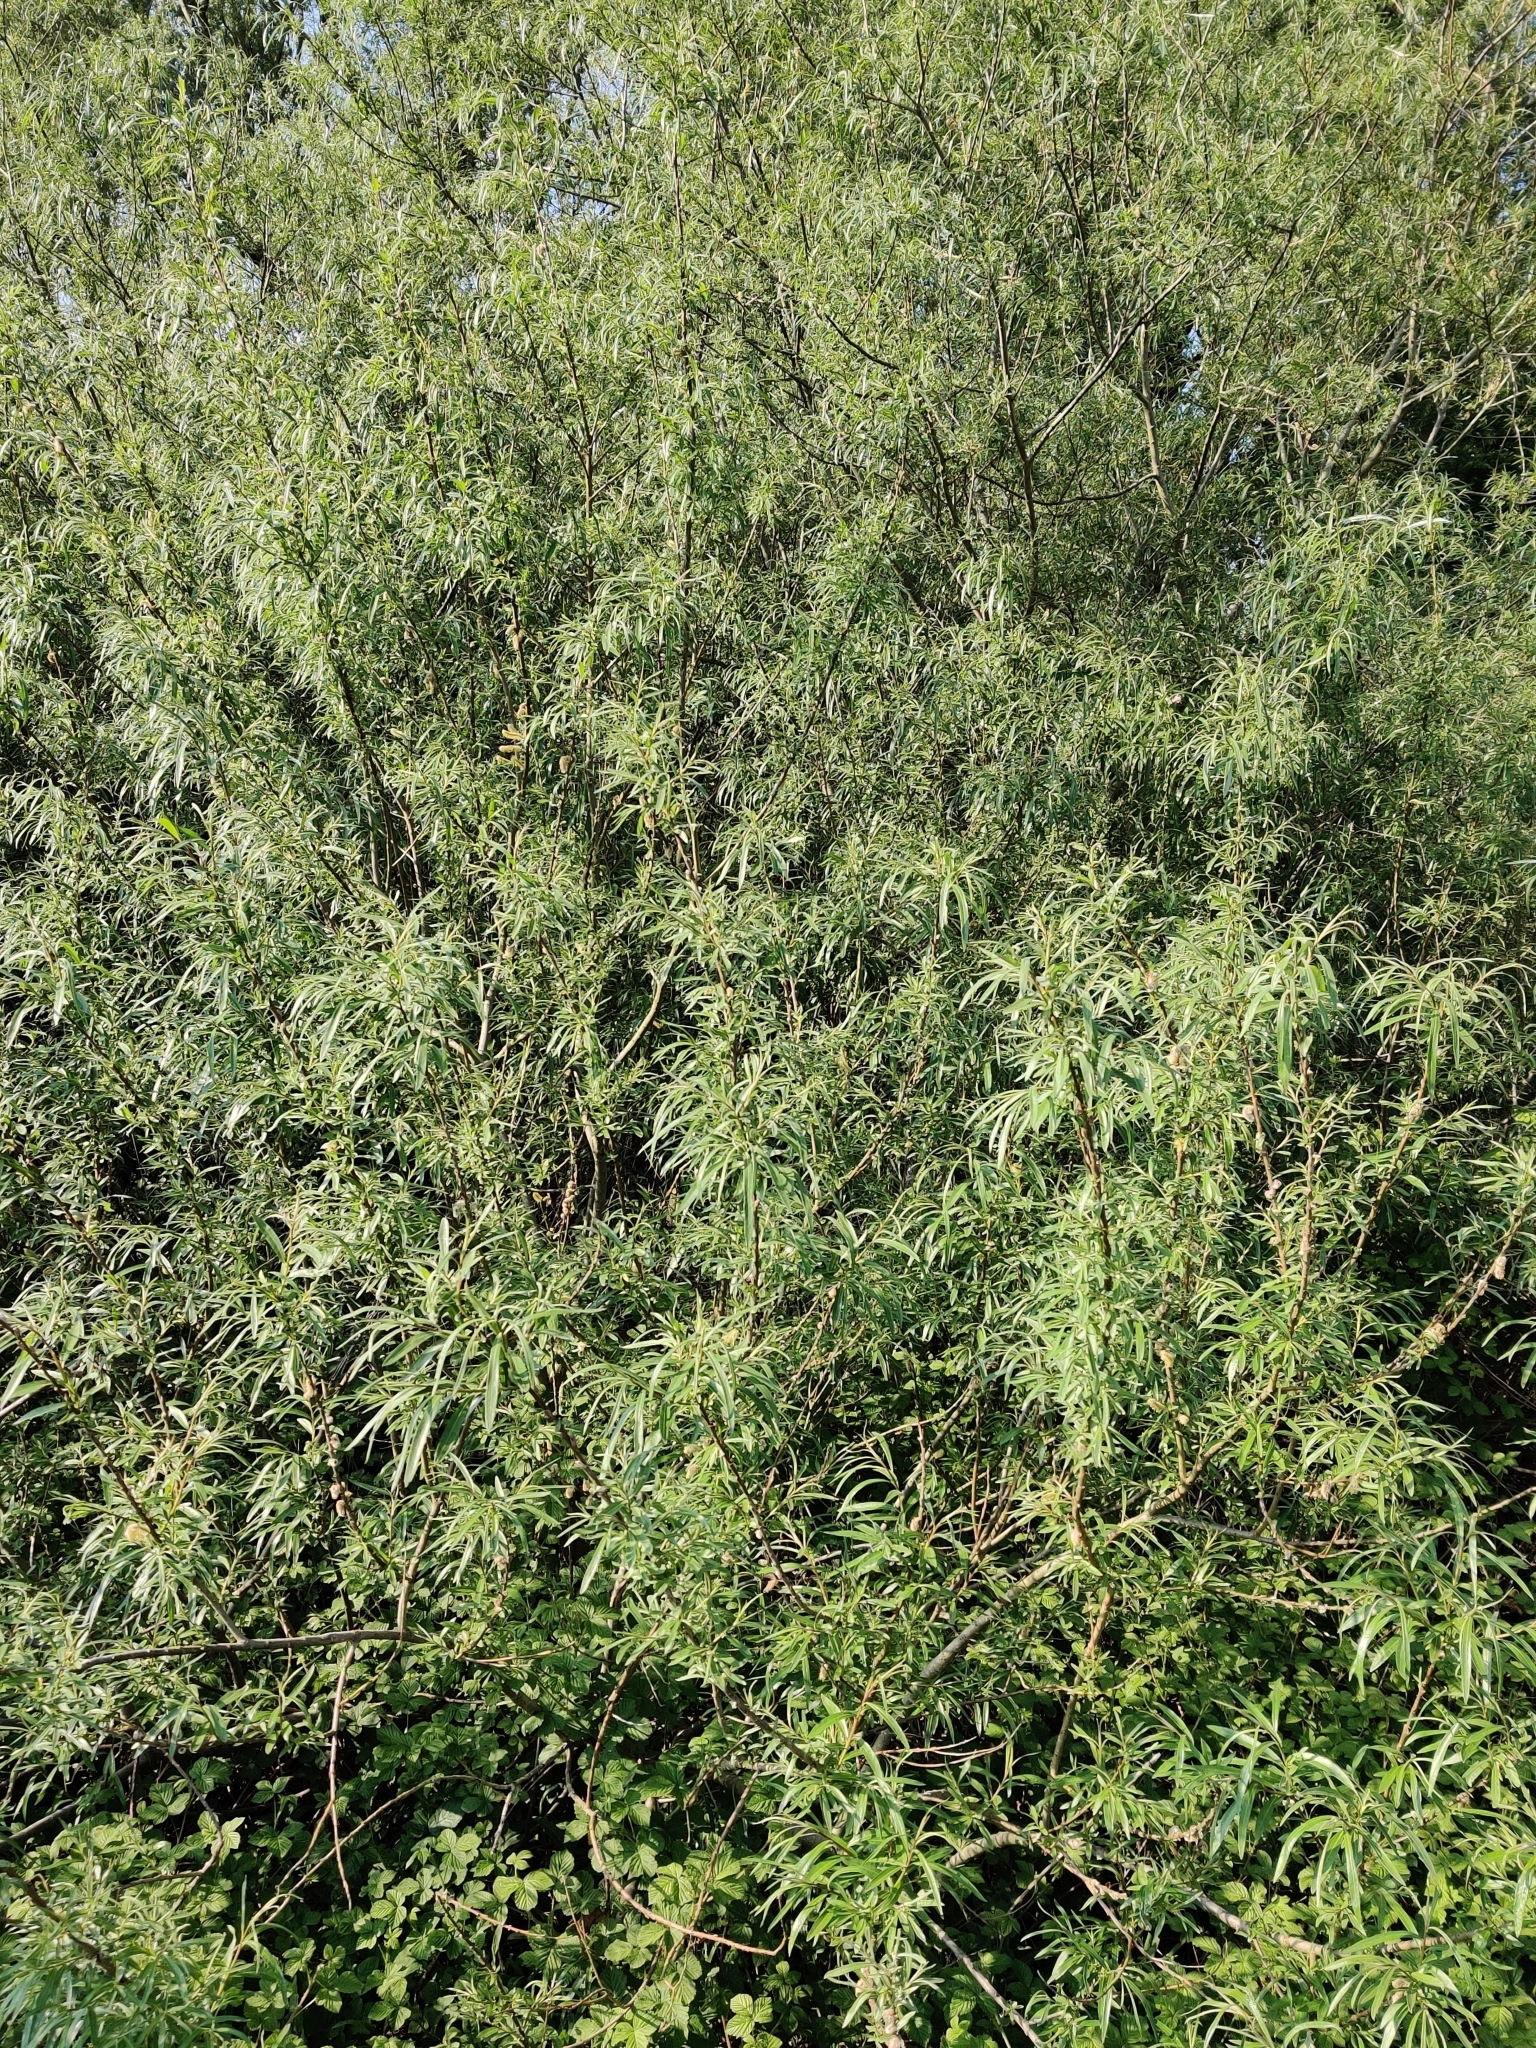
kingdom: Plantae
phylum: Tracheophyta
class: Magnoliopsida
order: Malpighiales
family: Salicaceae
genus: Salix
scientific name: Salix fragilis
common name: Crack willow
